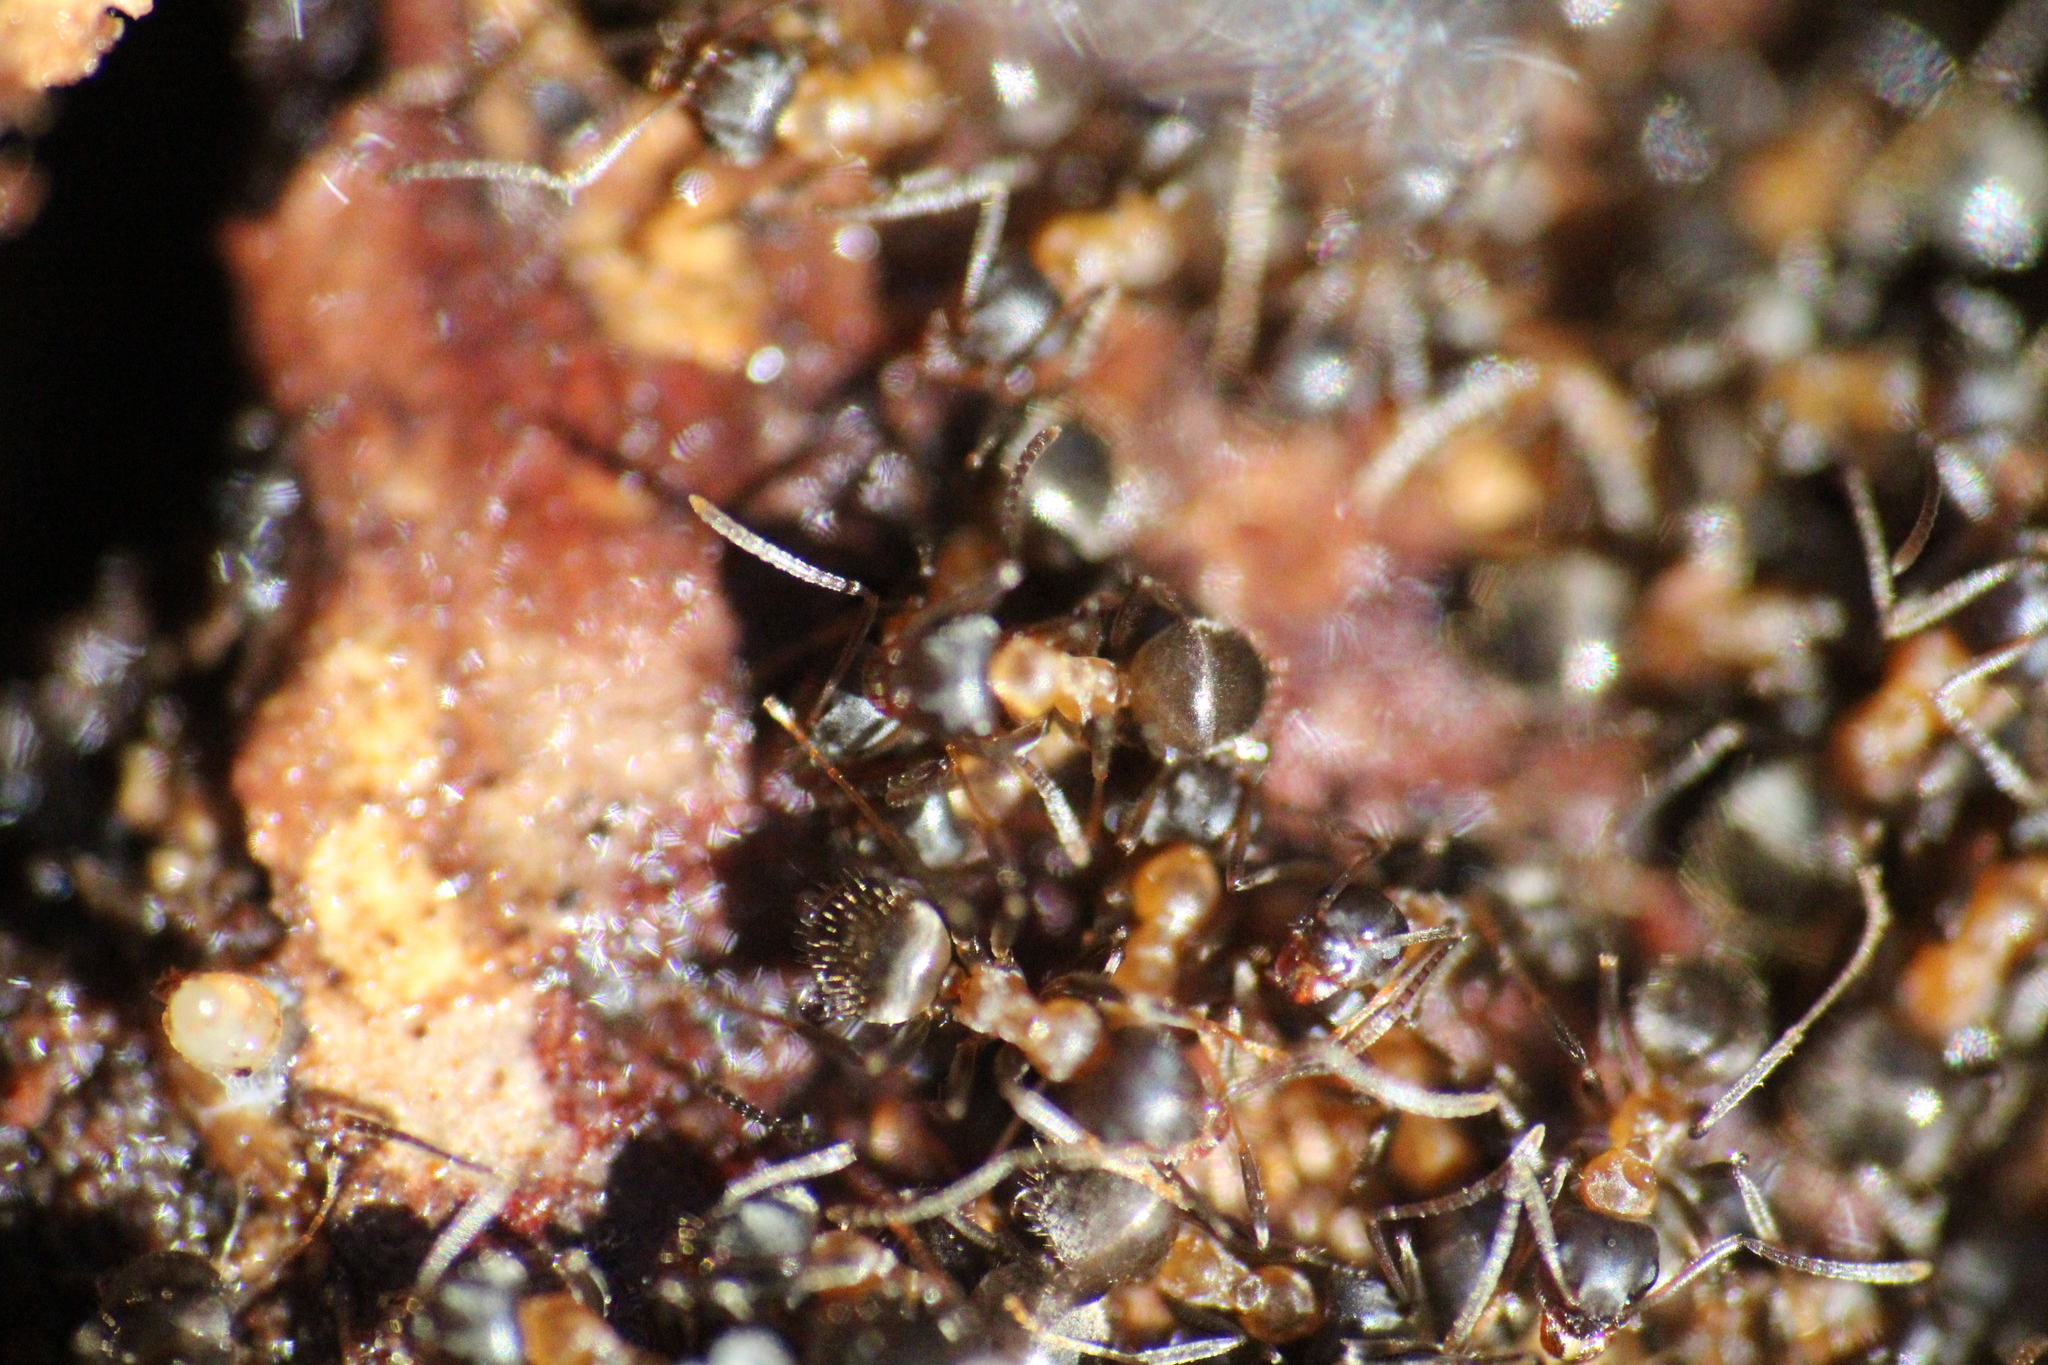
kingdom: Animalia
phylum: Arthropoda
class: Insecta
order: Hymenoptera
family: Formicidae
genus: Lasius
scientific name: Lasius emarginatus
